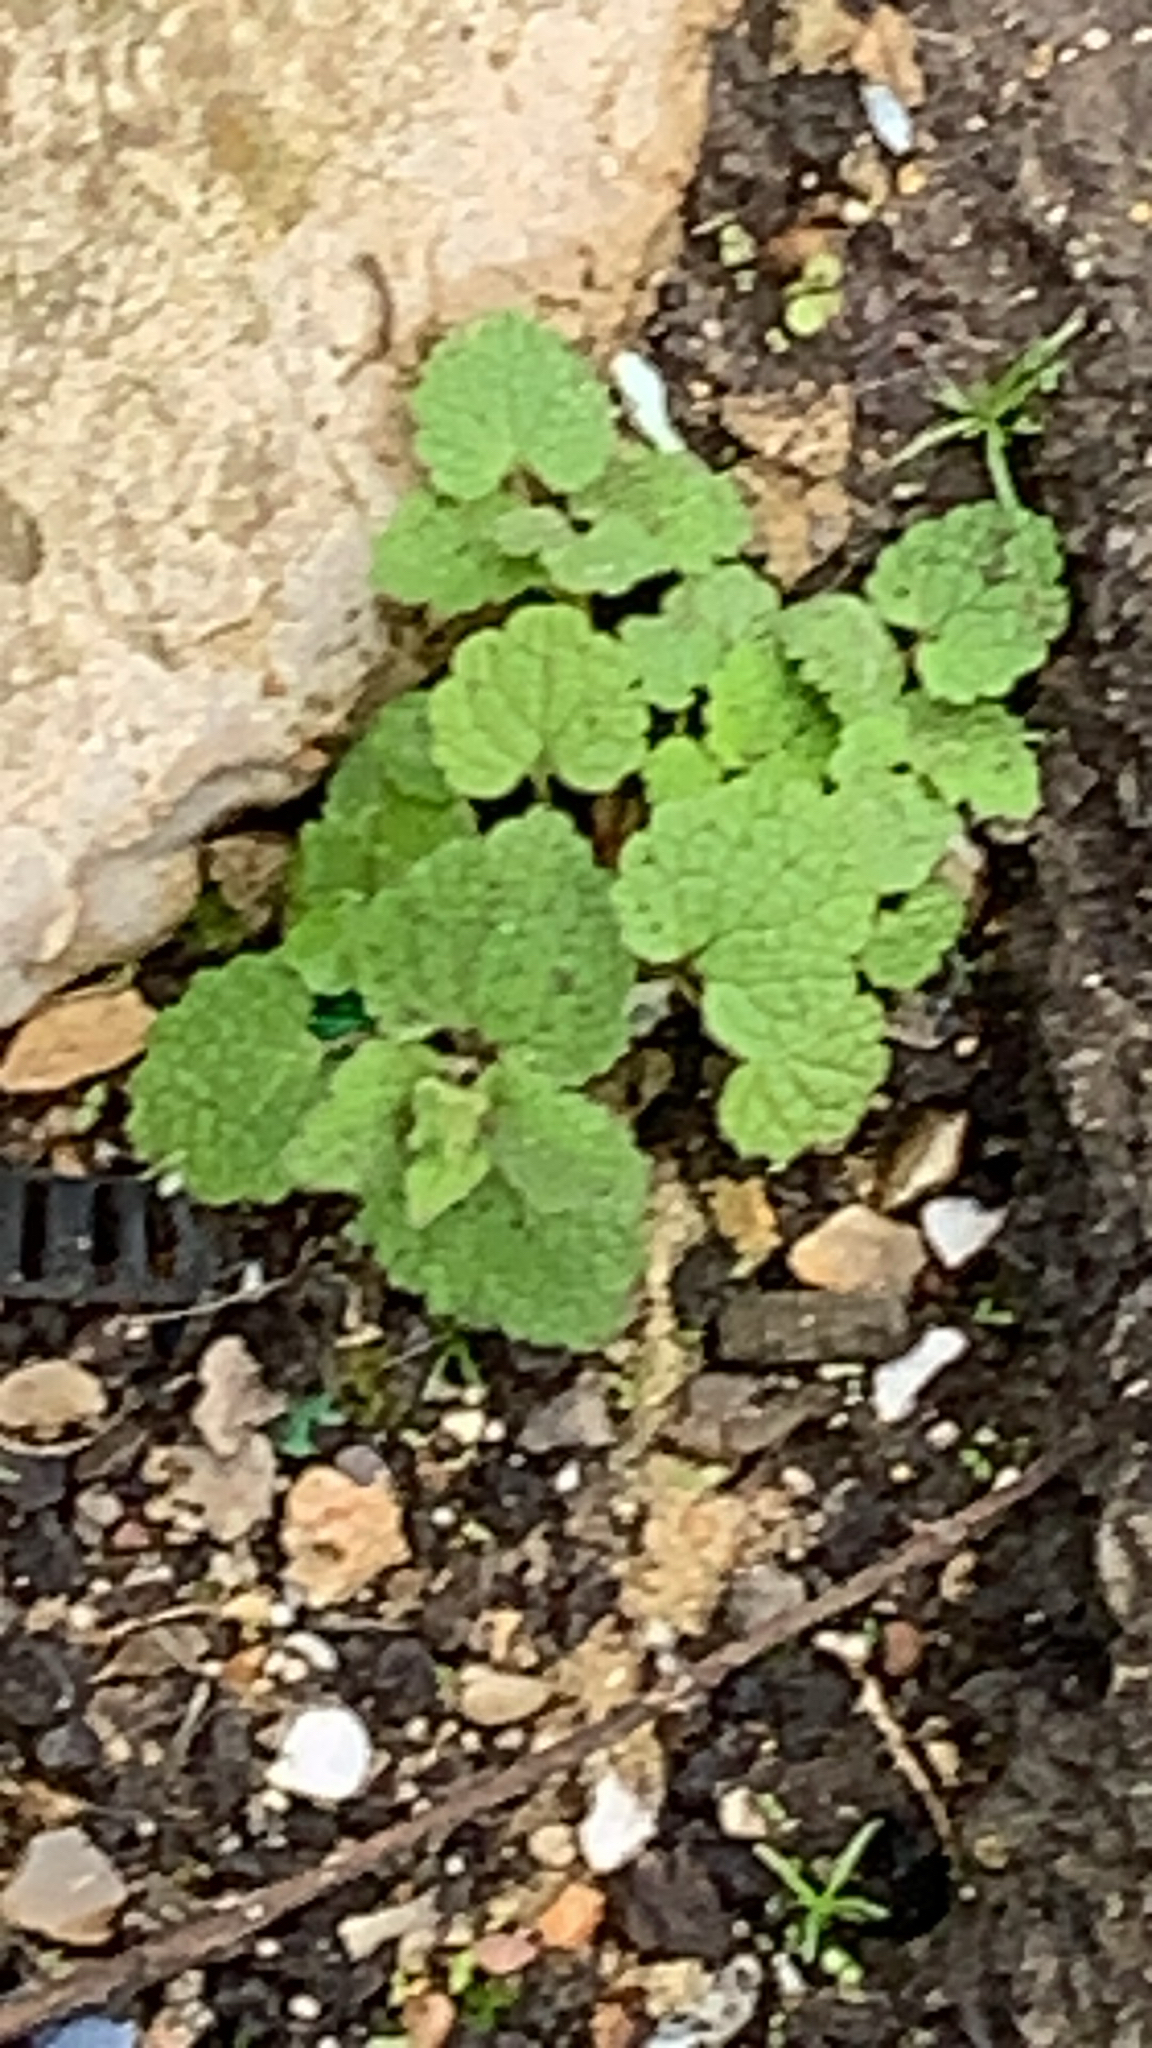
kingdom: Plantae
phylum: Tracheophyta
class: Magnoliopsida
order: Lamiales
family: Lamiaceae
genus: Lamium
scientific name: Lamium purpureum
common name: Red dead-nettle
